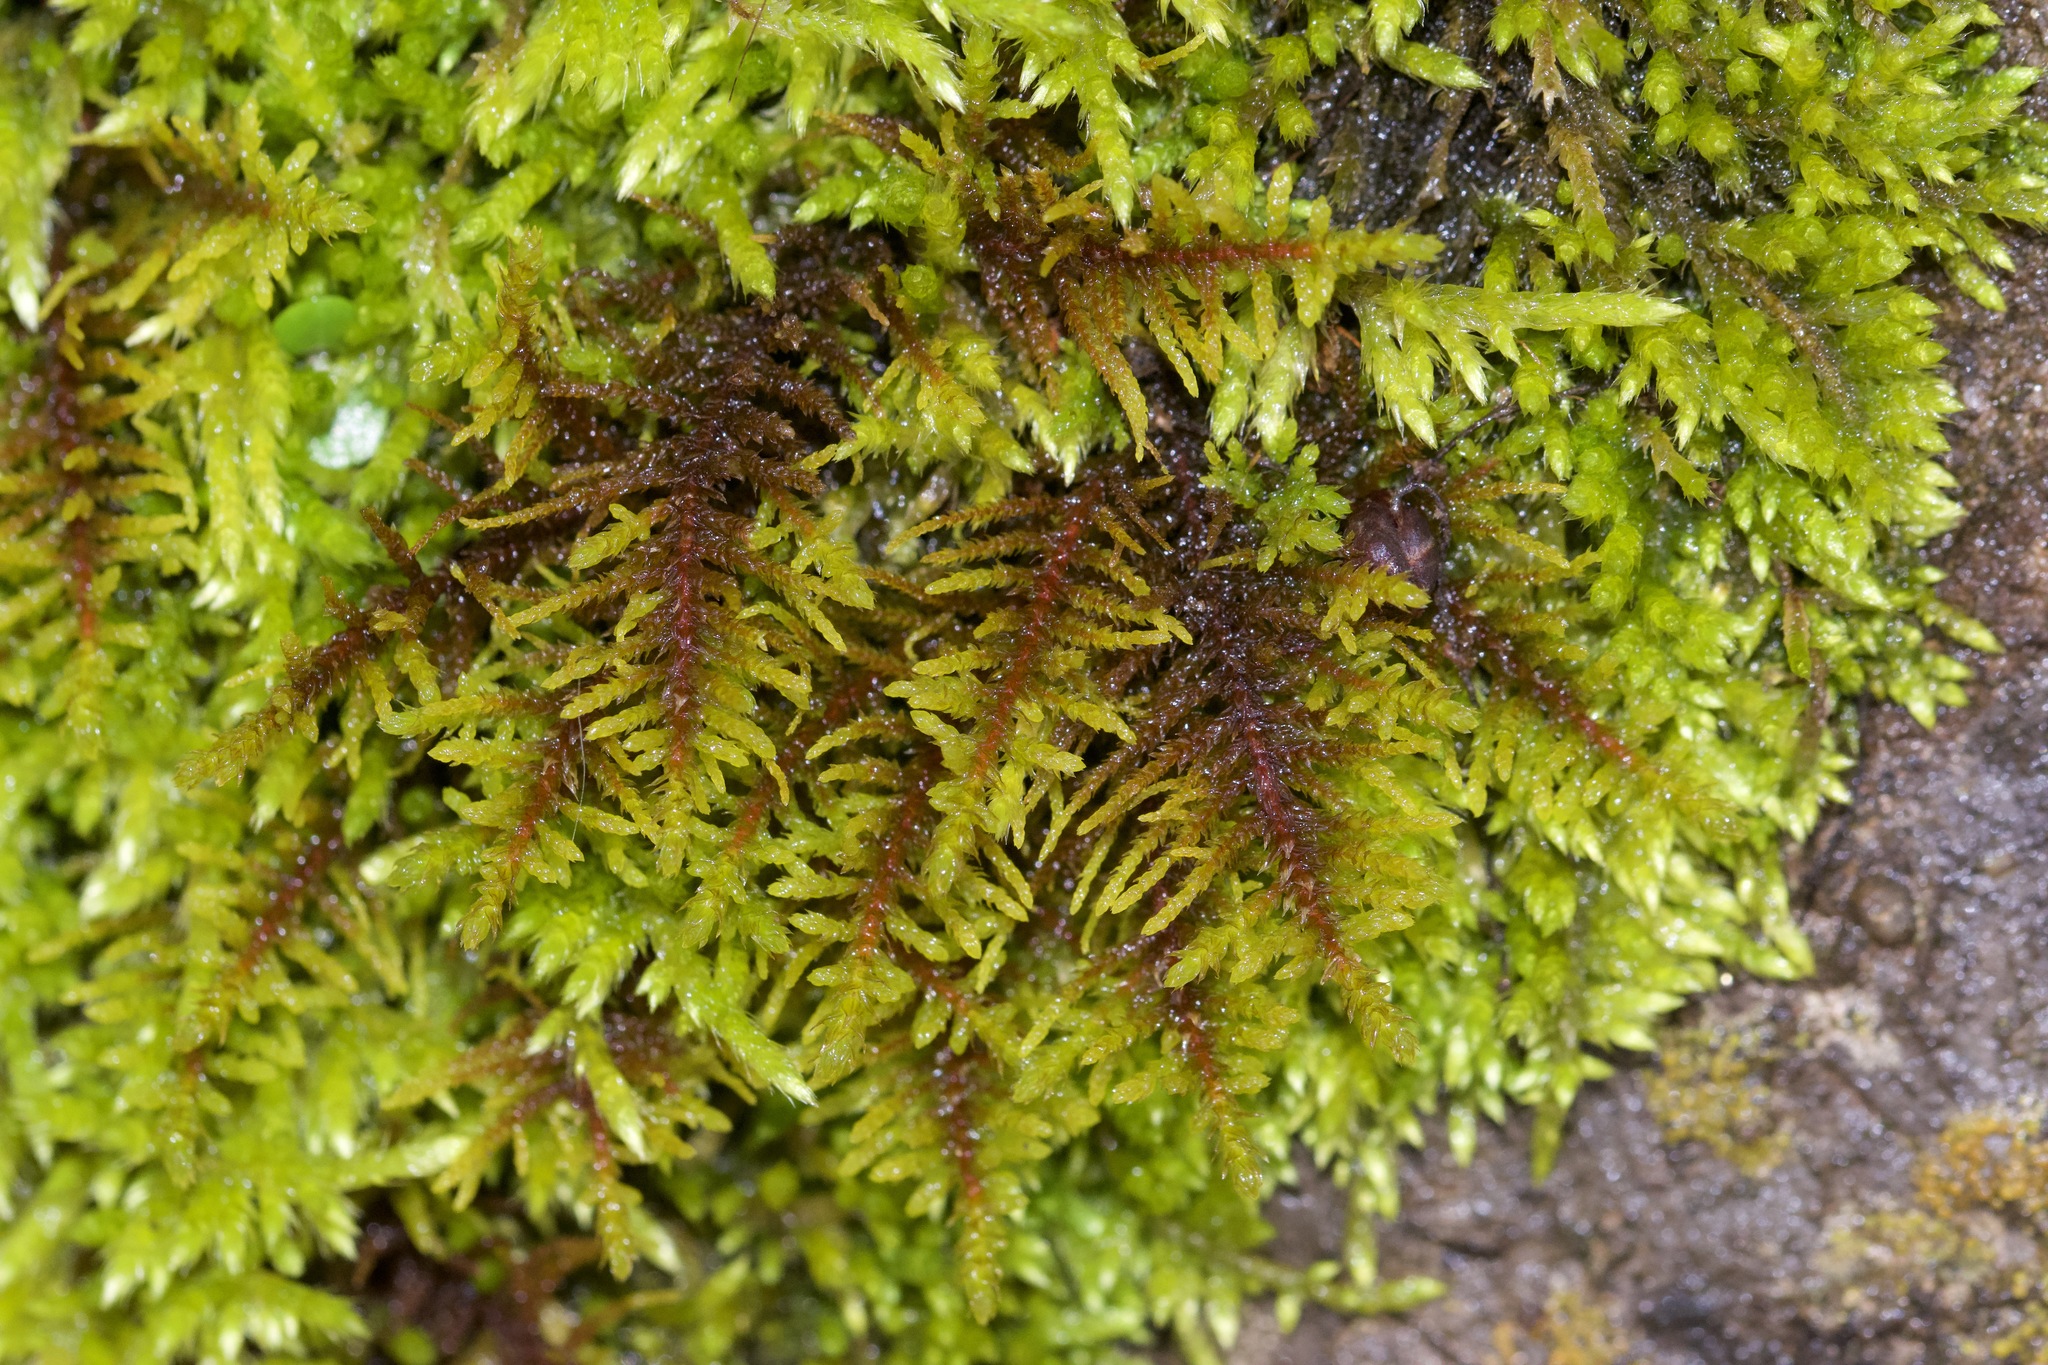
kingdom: Plantae
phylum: Bryophyta
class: Bryopsida
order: Hypnales
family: Thuidiaceae
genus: Abietinella
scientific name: Abietinella abietina
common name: Wiry fern moss
